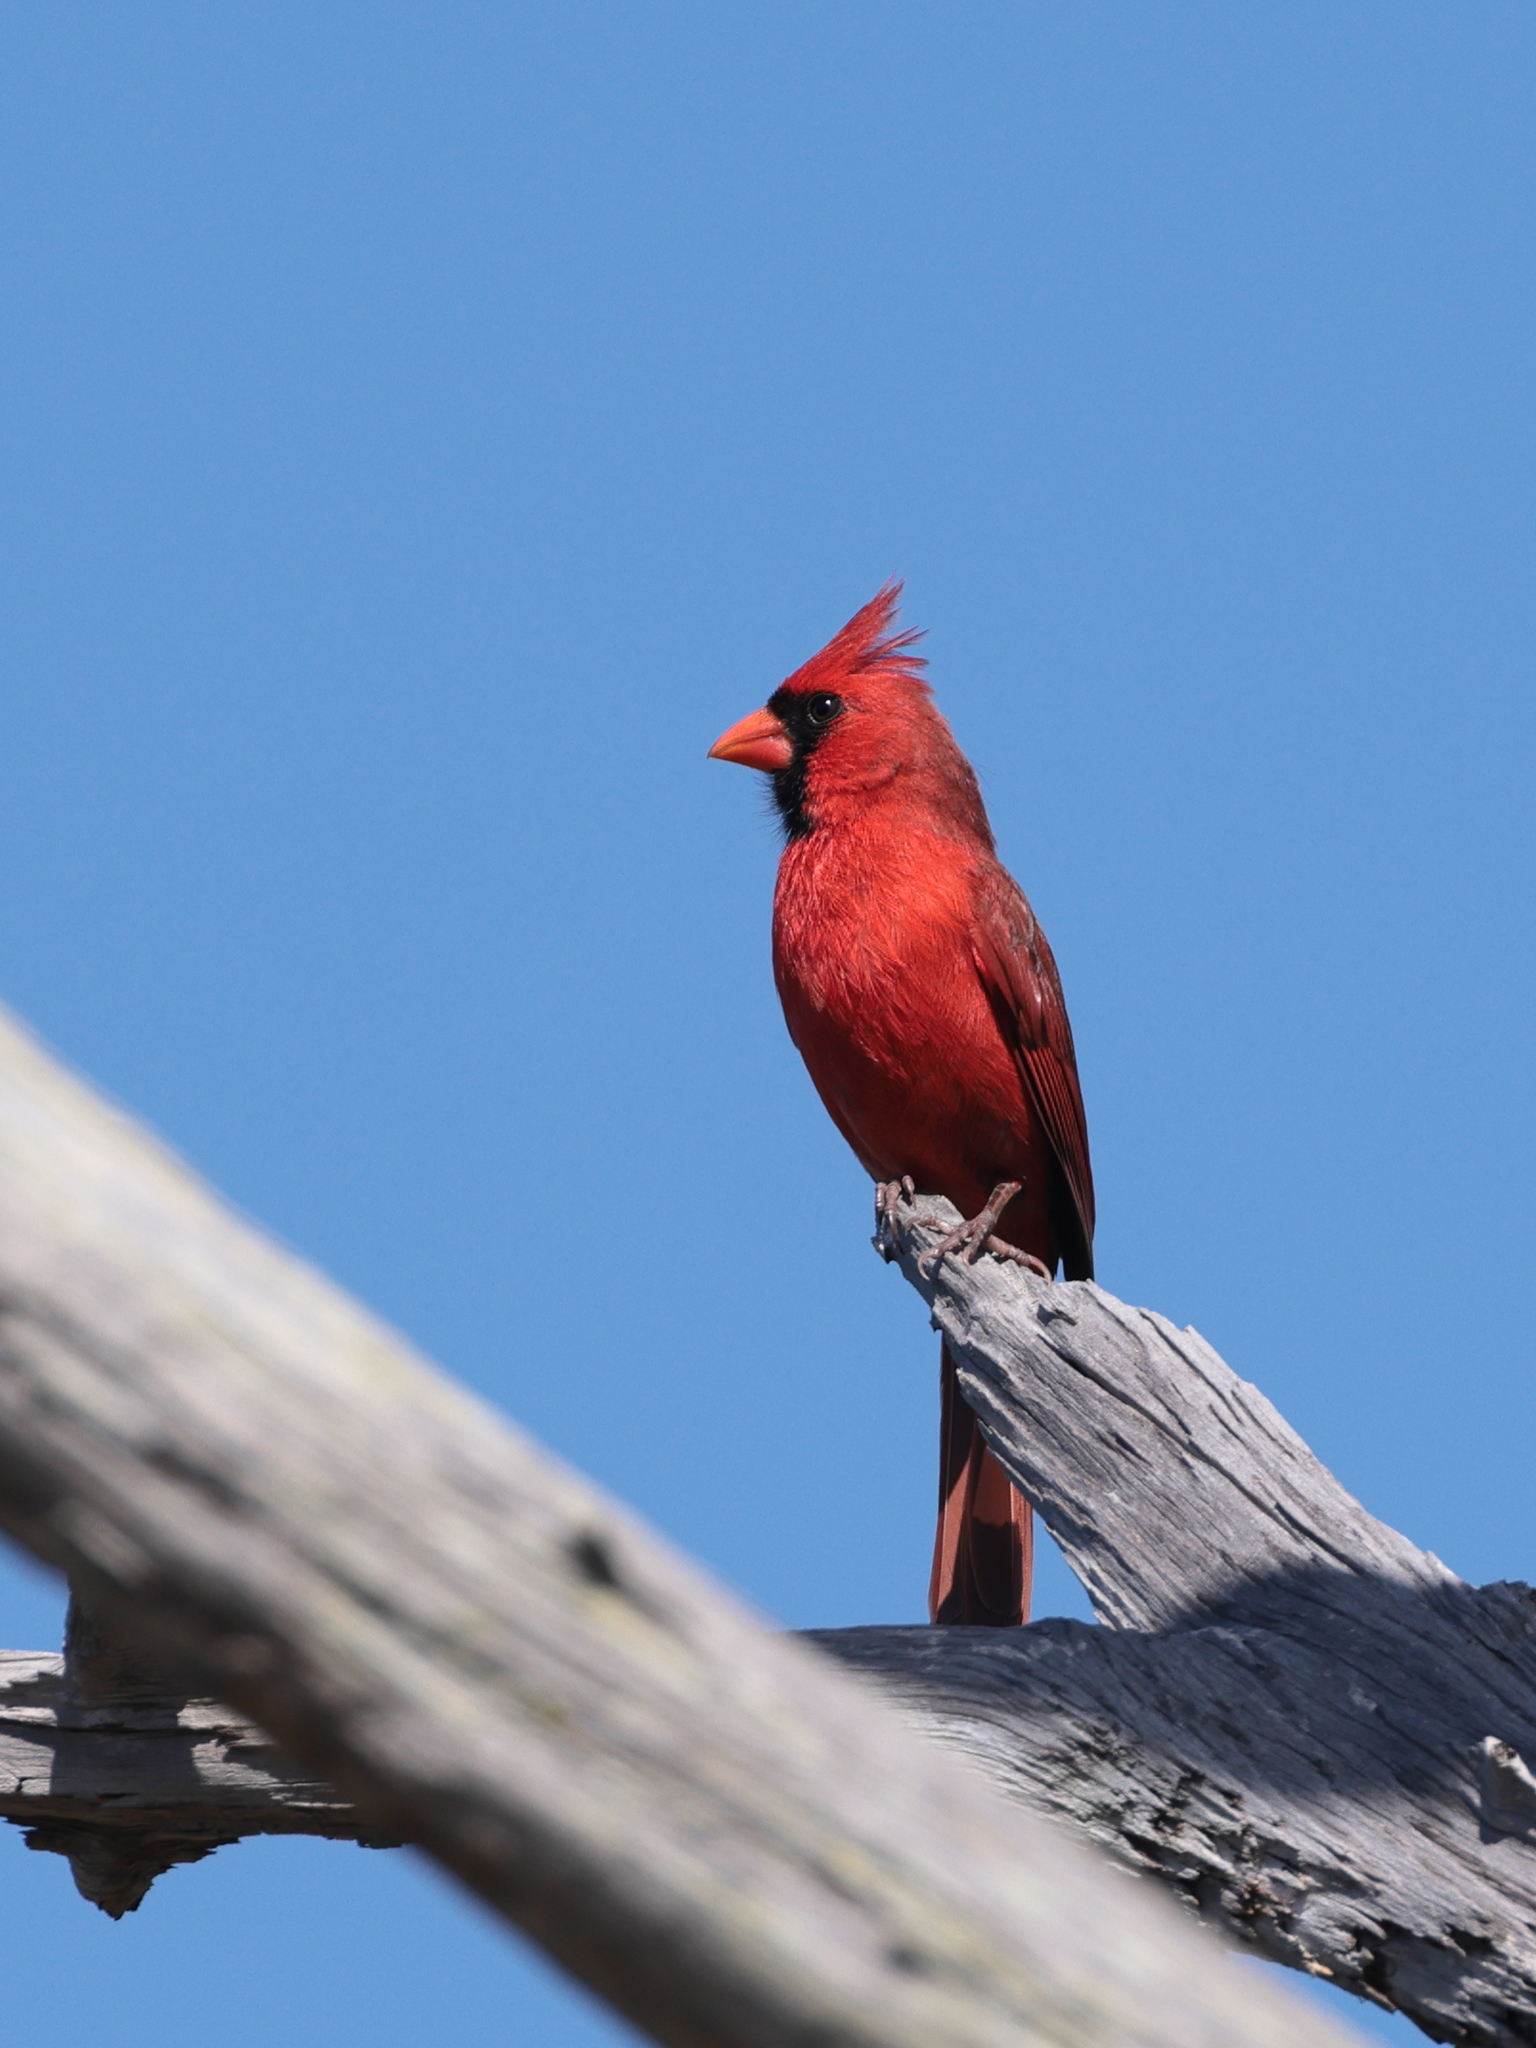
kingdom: Animalia
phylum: Chordata
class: Aves
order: Passeriformes
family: Cardinalidae
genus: Cardinalis
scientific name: Cardinalis cardinalis
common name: Northern cardinal
